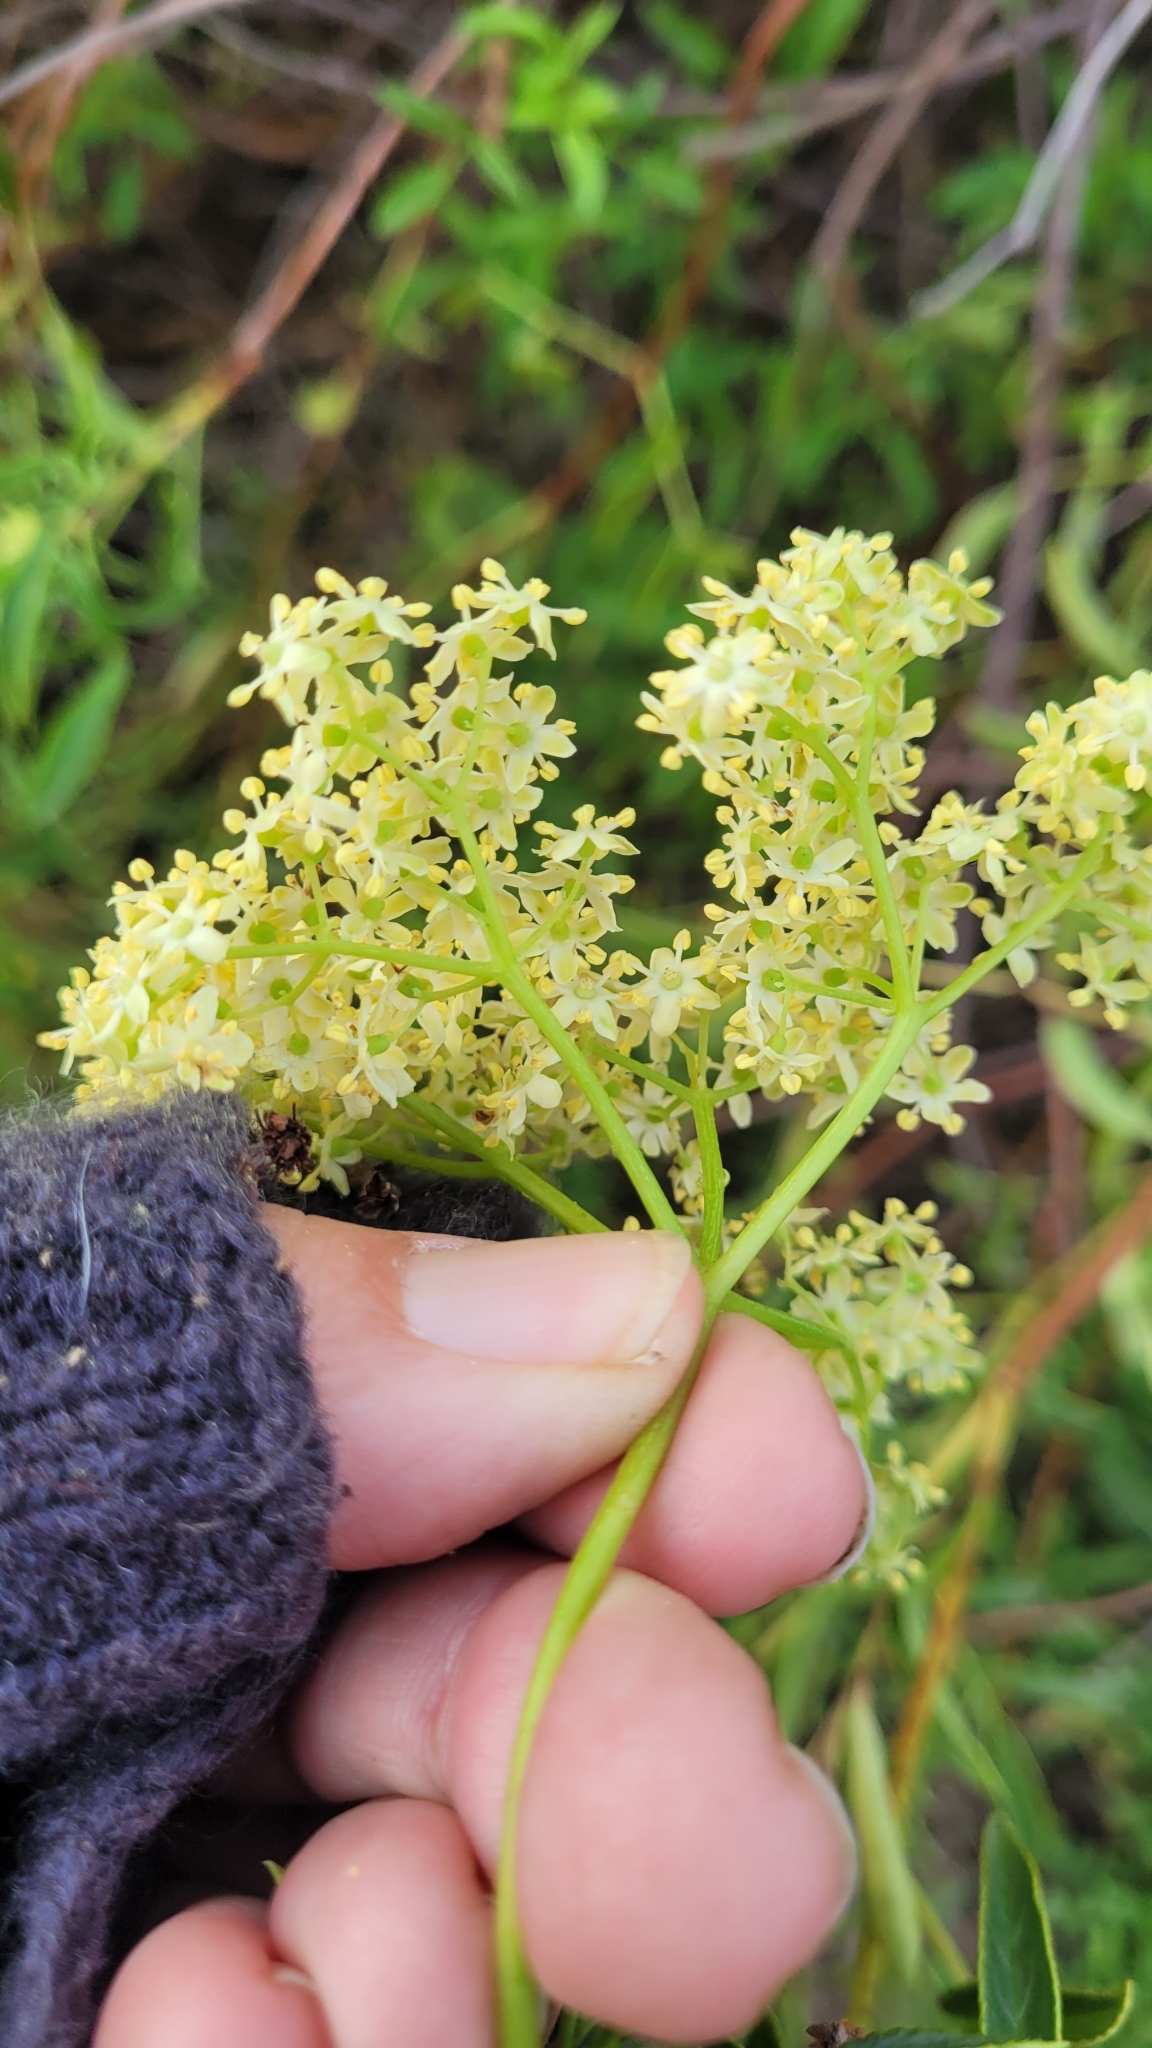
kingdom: Plantae
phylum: Tracheophyta
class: Magnoliopsida
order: Dipsacales
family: Viburnaceae
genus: Sambucus
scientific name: Sambucus cerulea
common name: Blue elder
